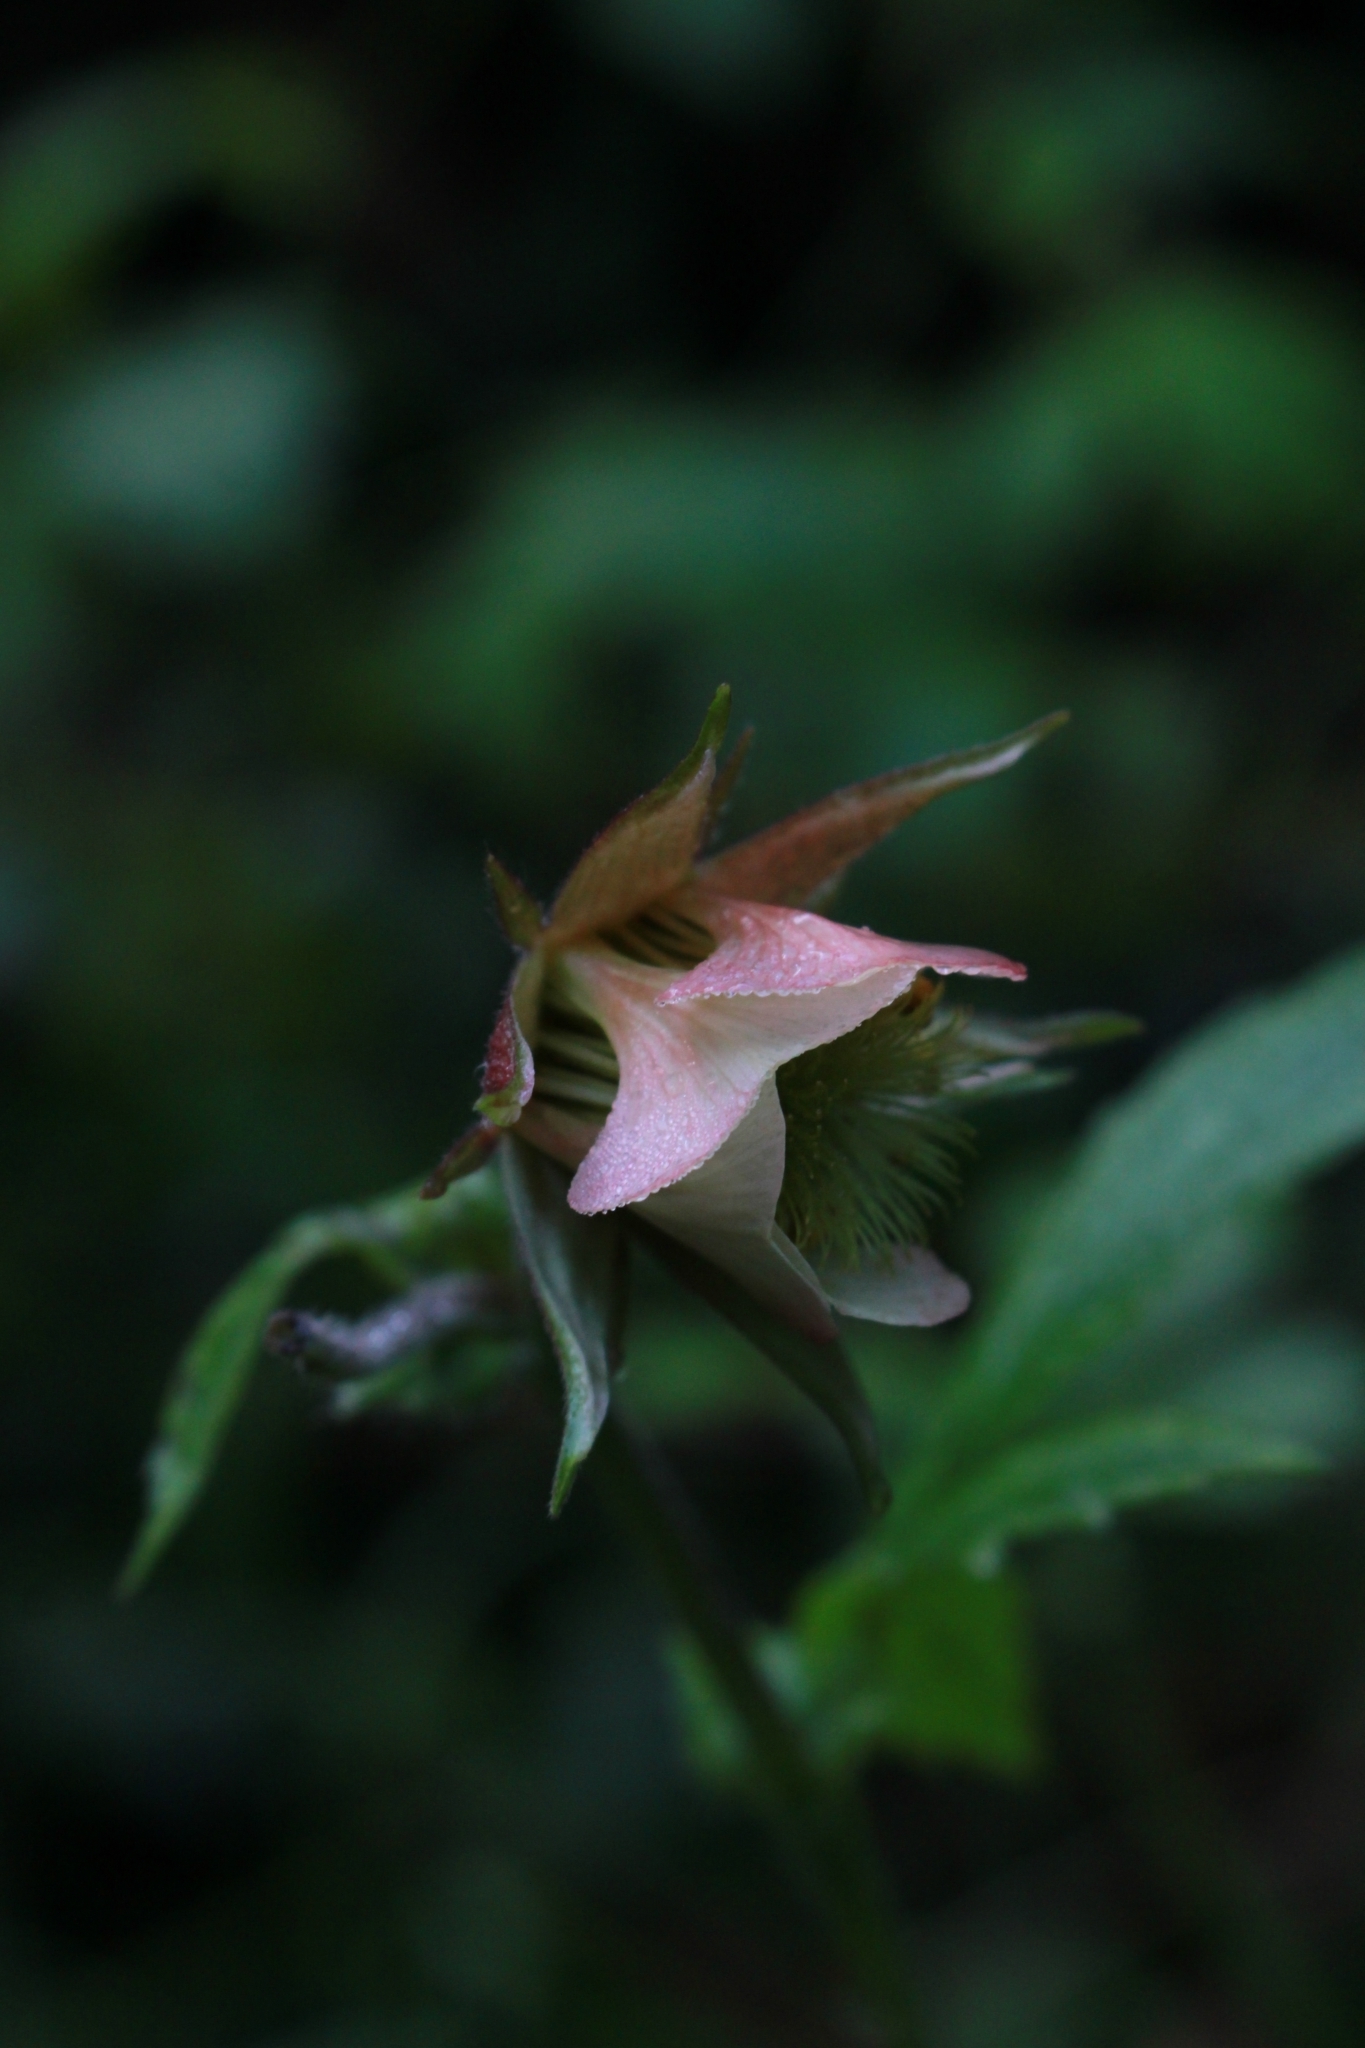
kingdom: Plantae
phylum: Tracheophyta
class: Magnoliopsida
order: Rosales
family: Rosaceae
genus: Geum
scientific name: Geum rivale
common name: Water avens
